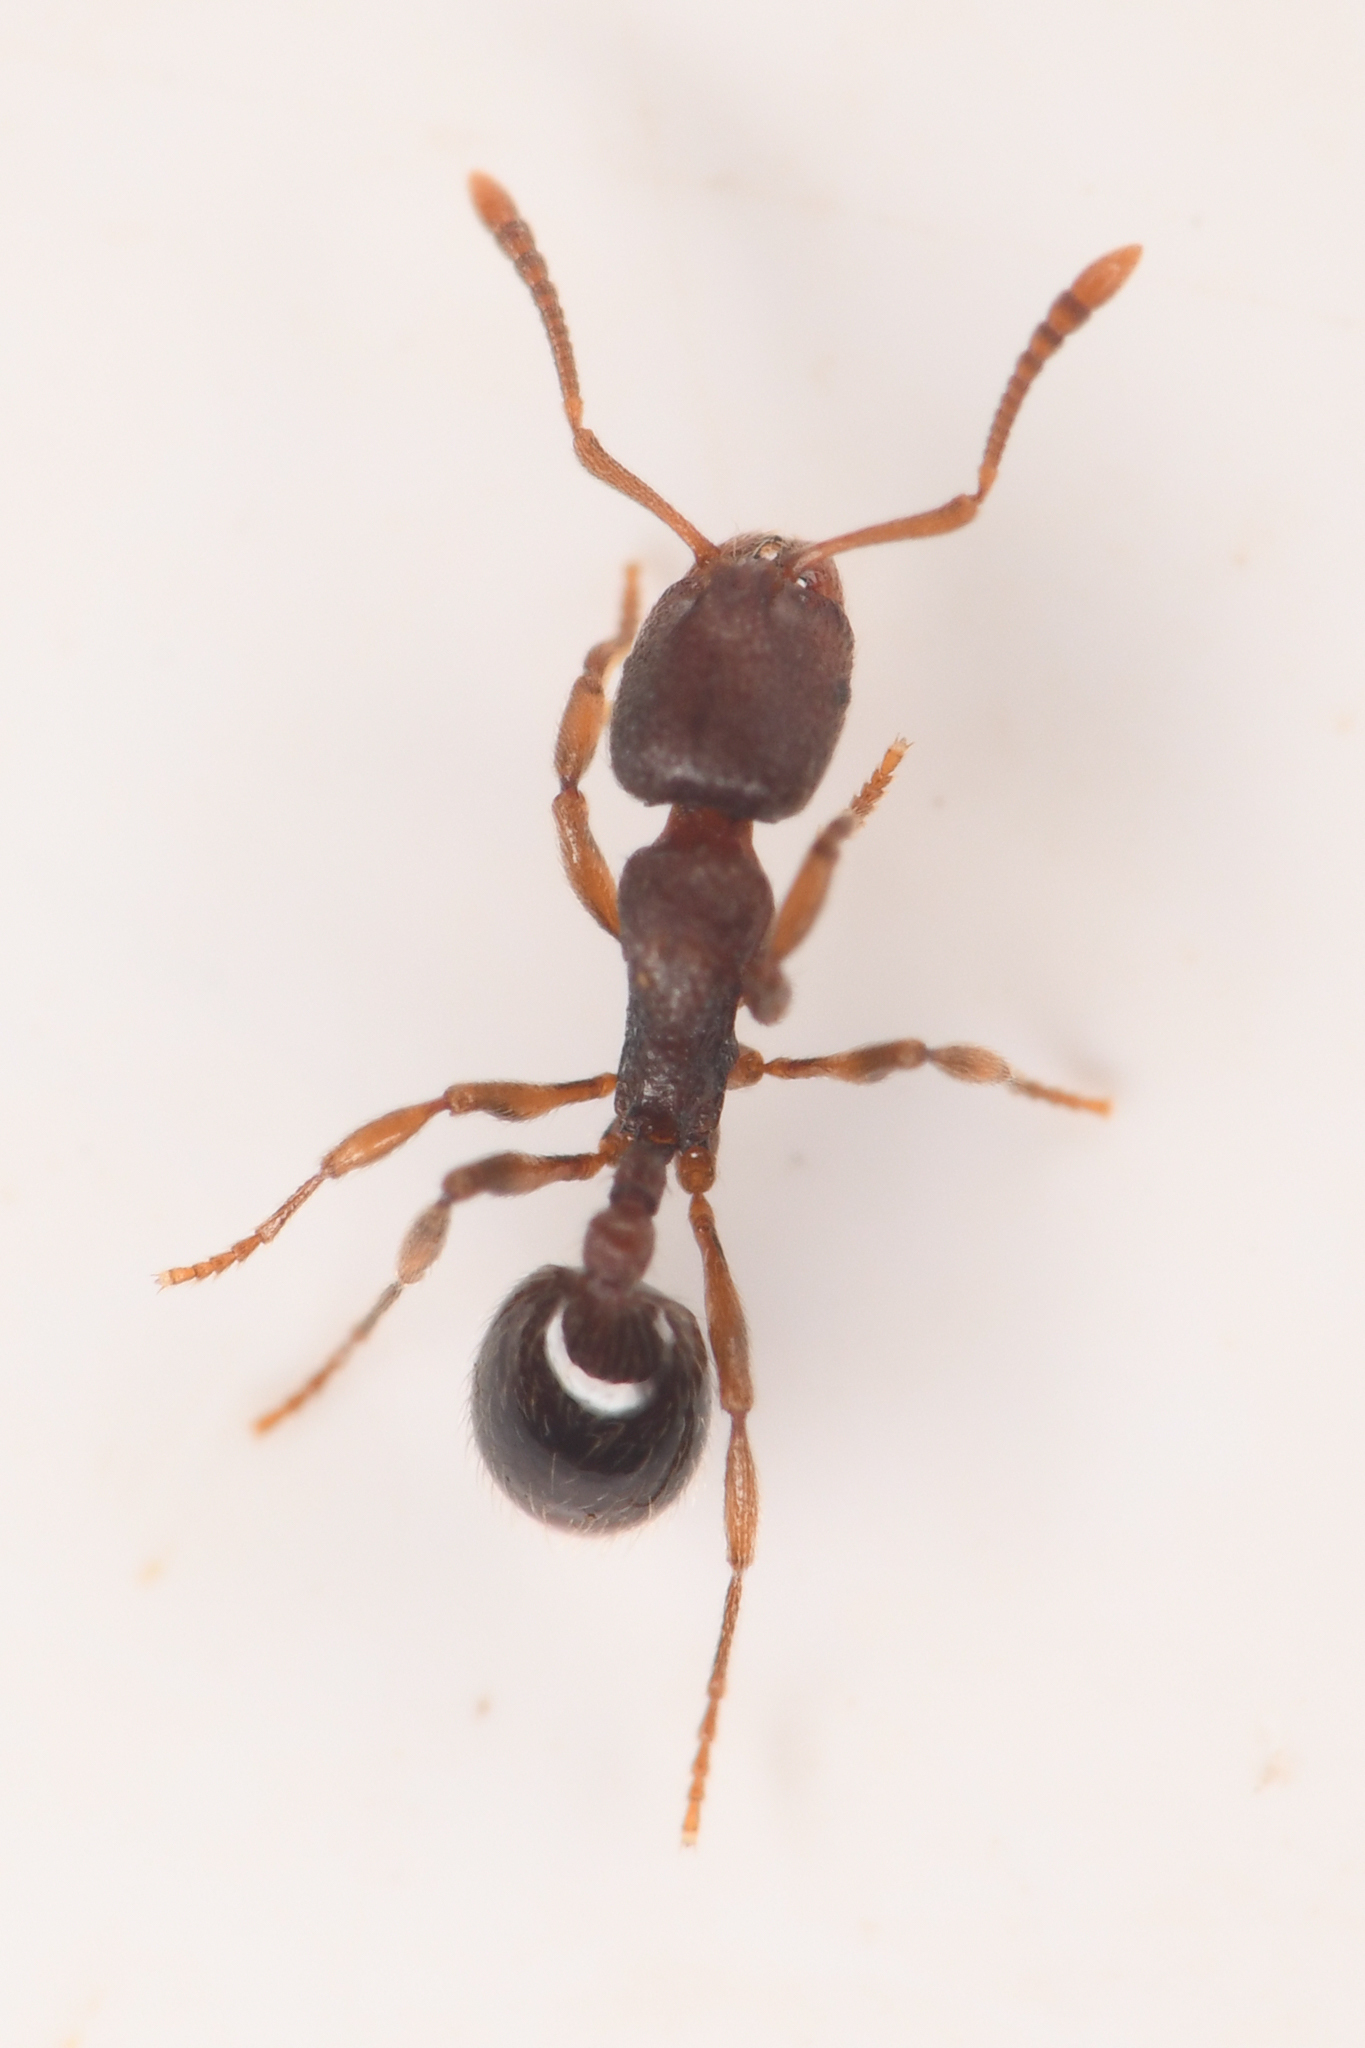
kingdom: Animalia
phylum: Arthropoda
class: Insecta
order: Hymenoptera
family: Formicidae
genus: Stenamma
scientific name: Stenamma snellingi
